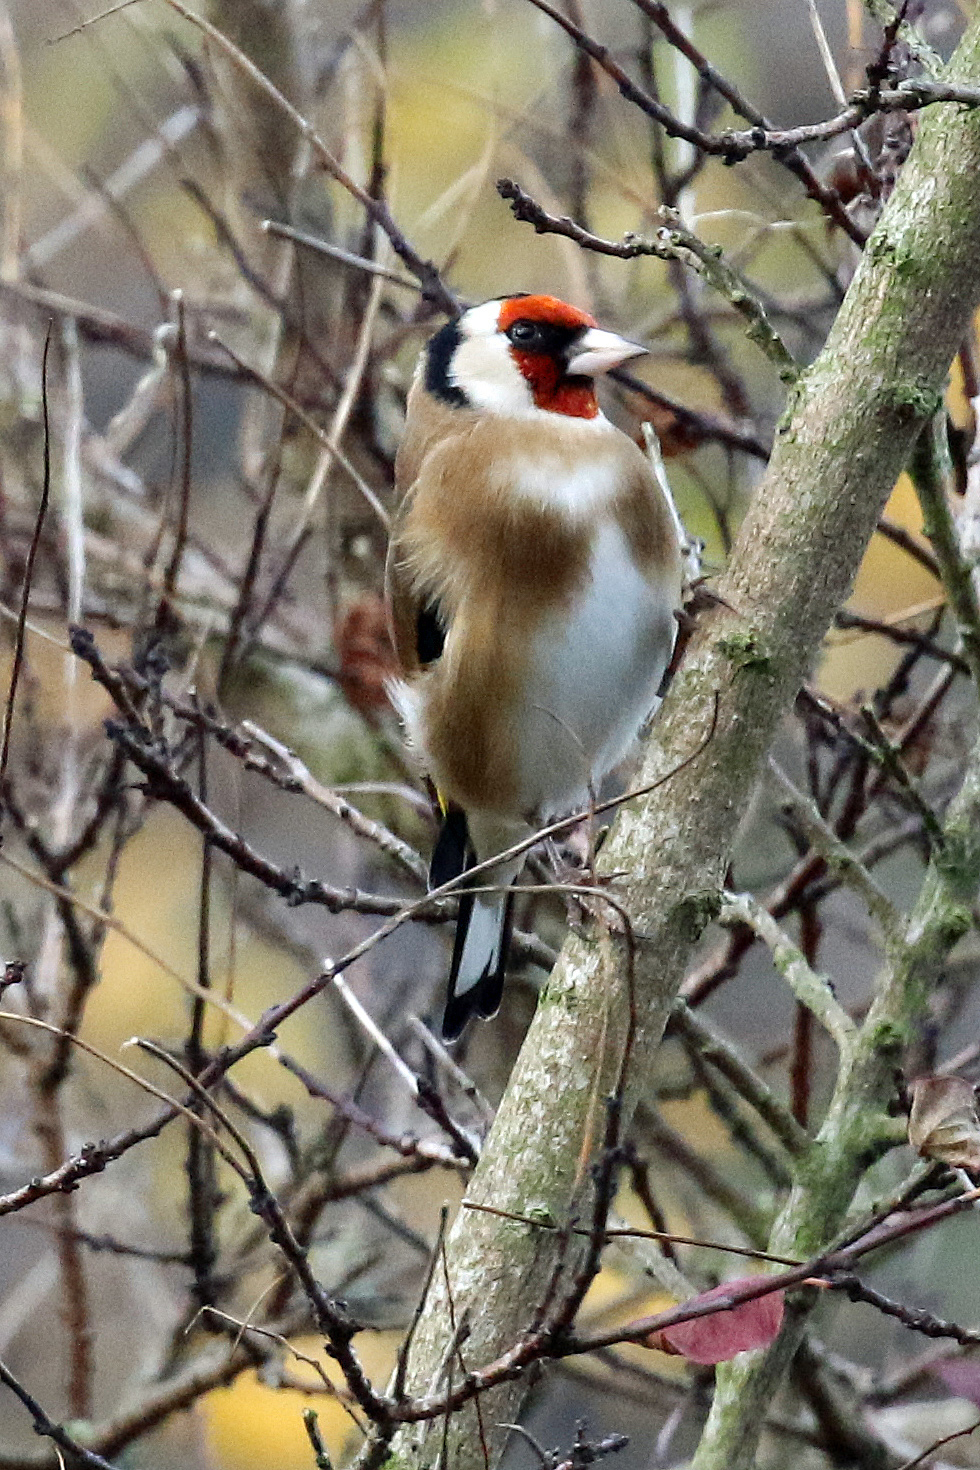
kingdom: Animalia
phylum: Chordata
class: Aves
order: Passeriformes
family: Fringillidae
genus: Carduelis
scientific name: Carduelis carduelis
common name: European goldfinch
